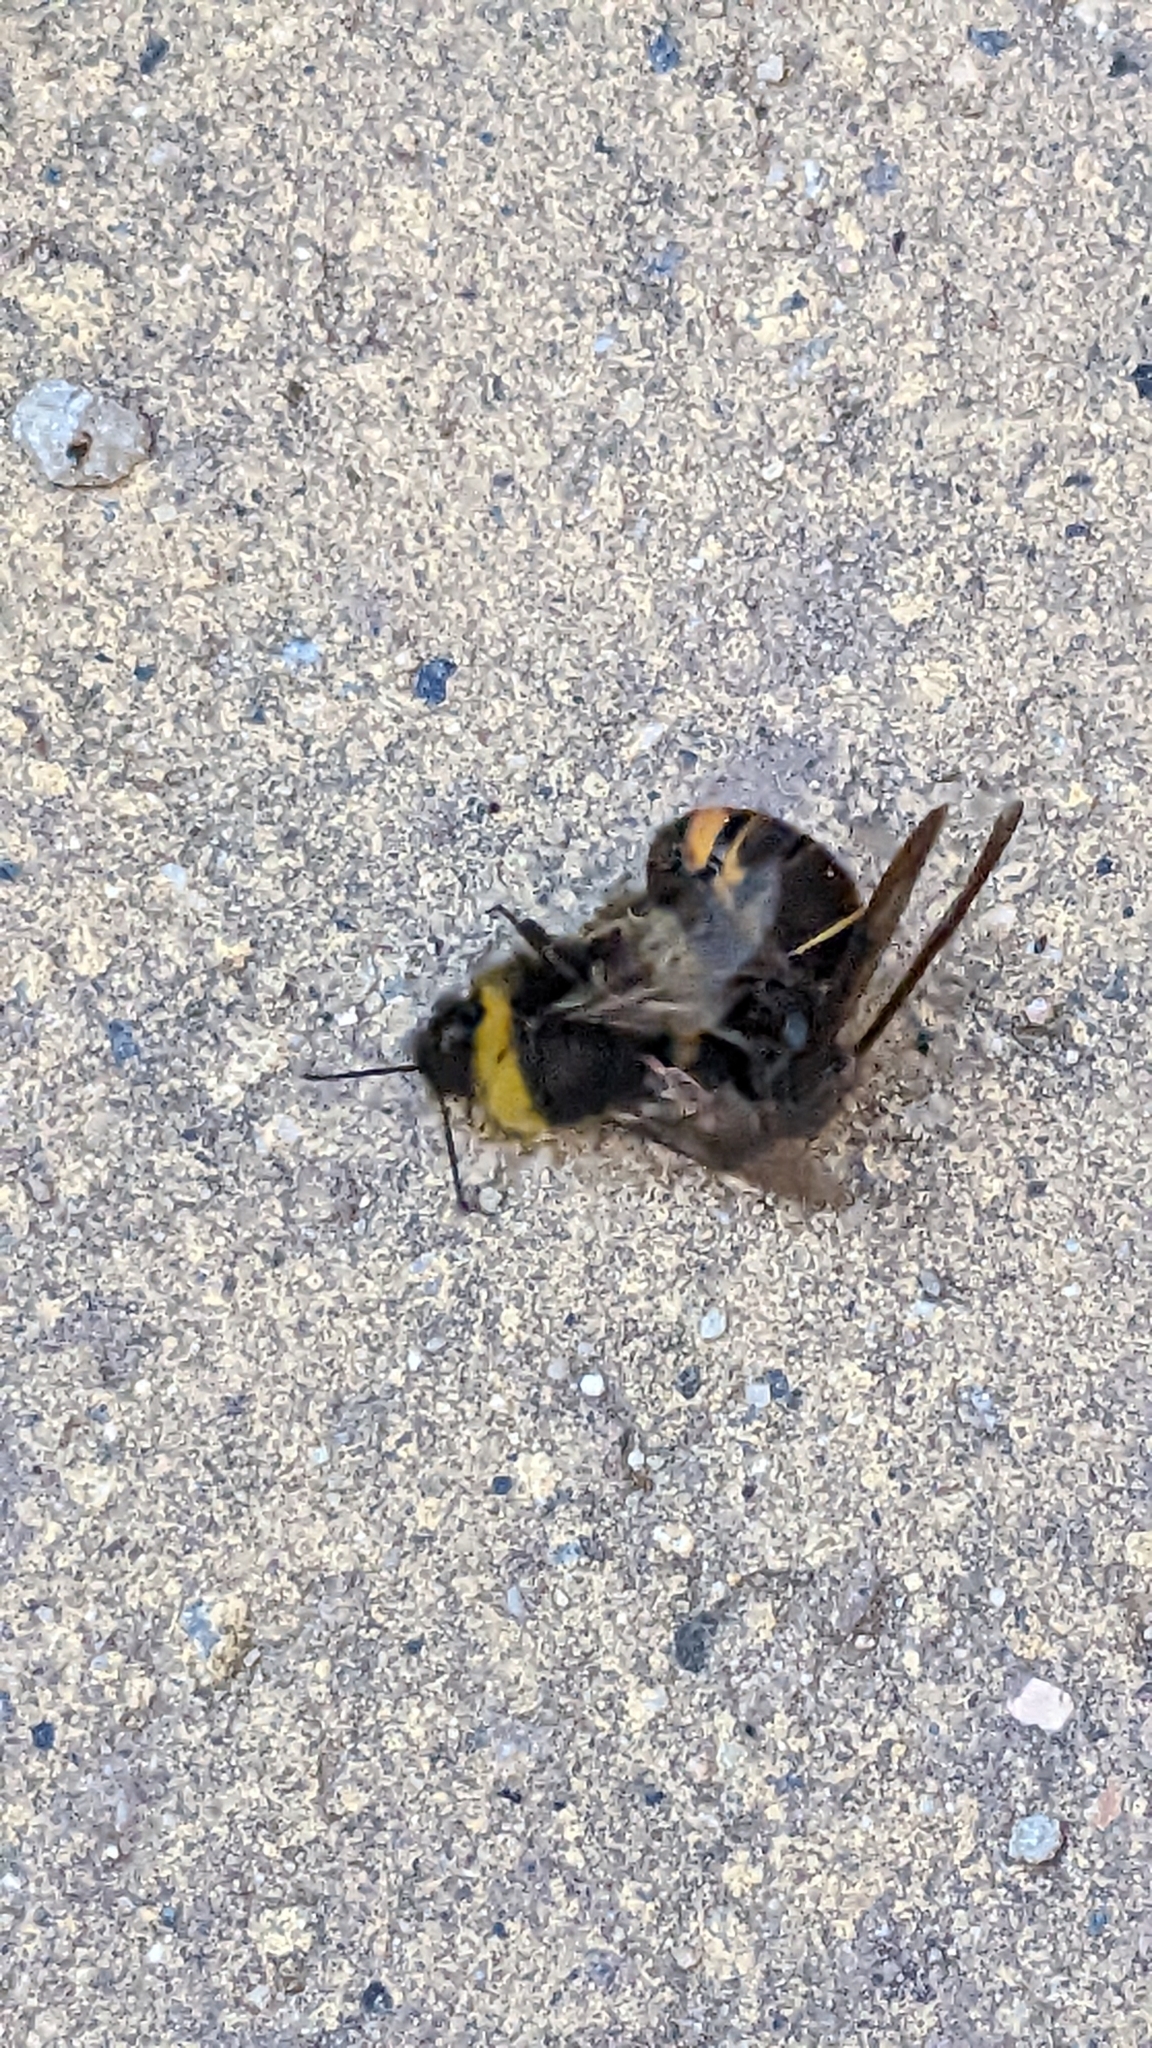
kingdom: Animalia
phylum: Arthropoda
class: Insecta
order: Hymenoptera
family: Vespidae
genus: Vespa
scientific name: Vespa velutina
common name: Asian hornet
